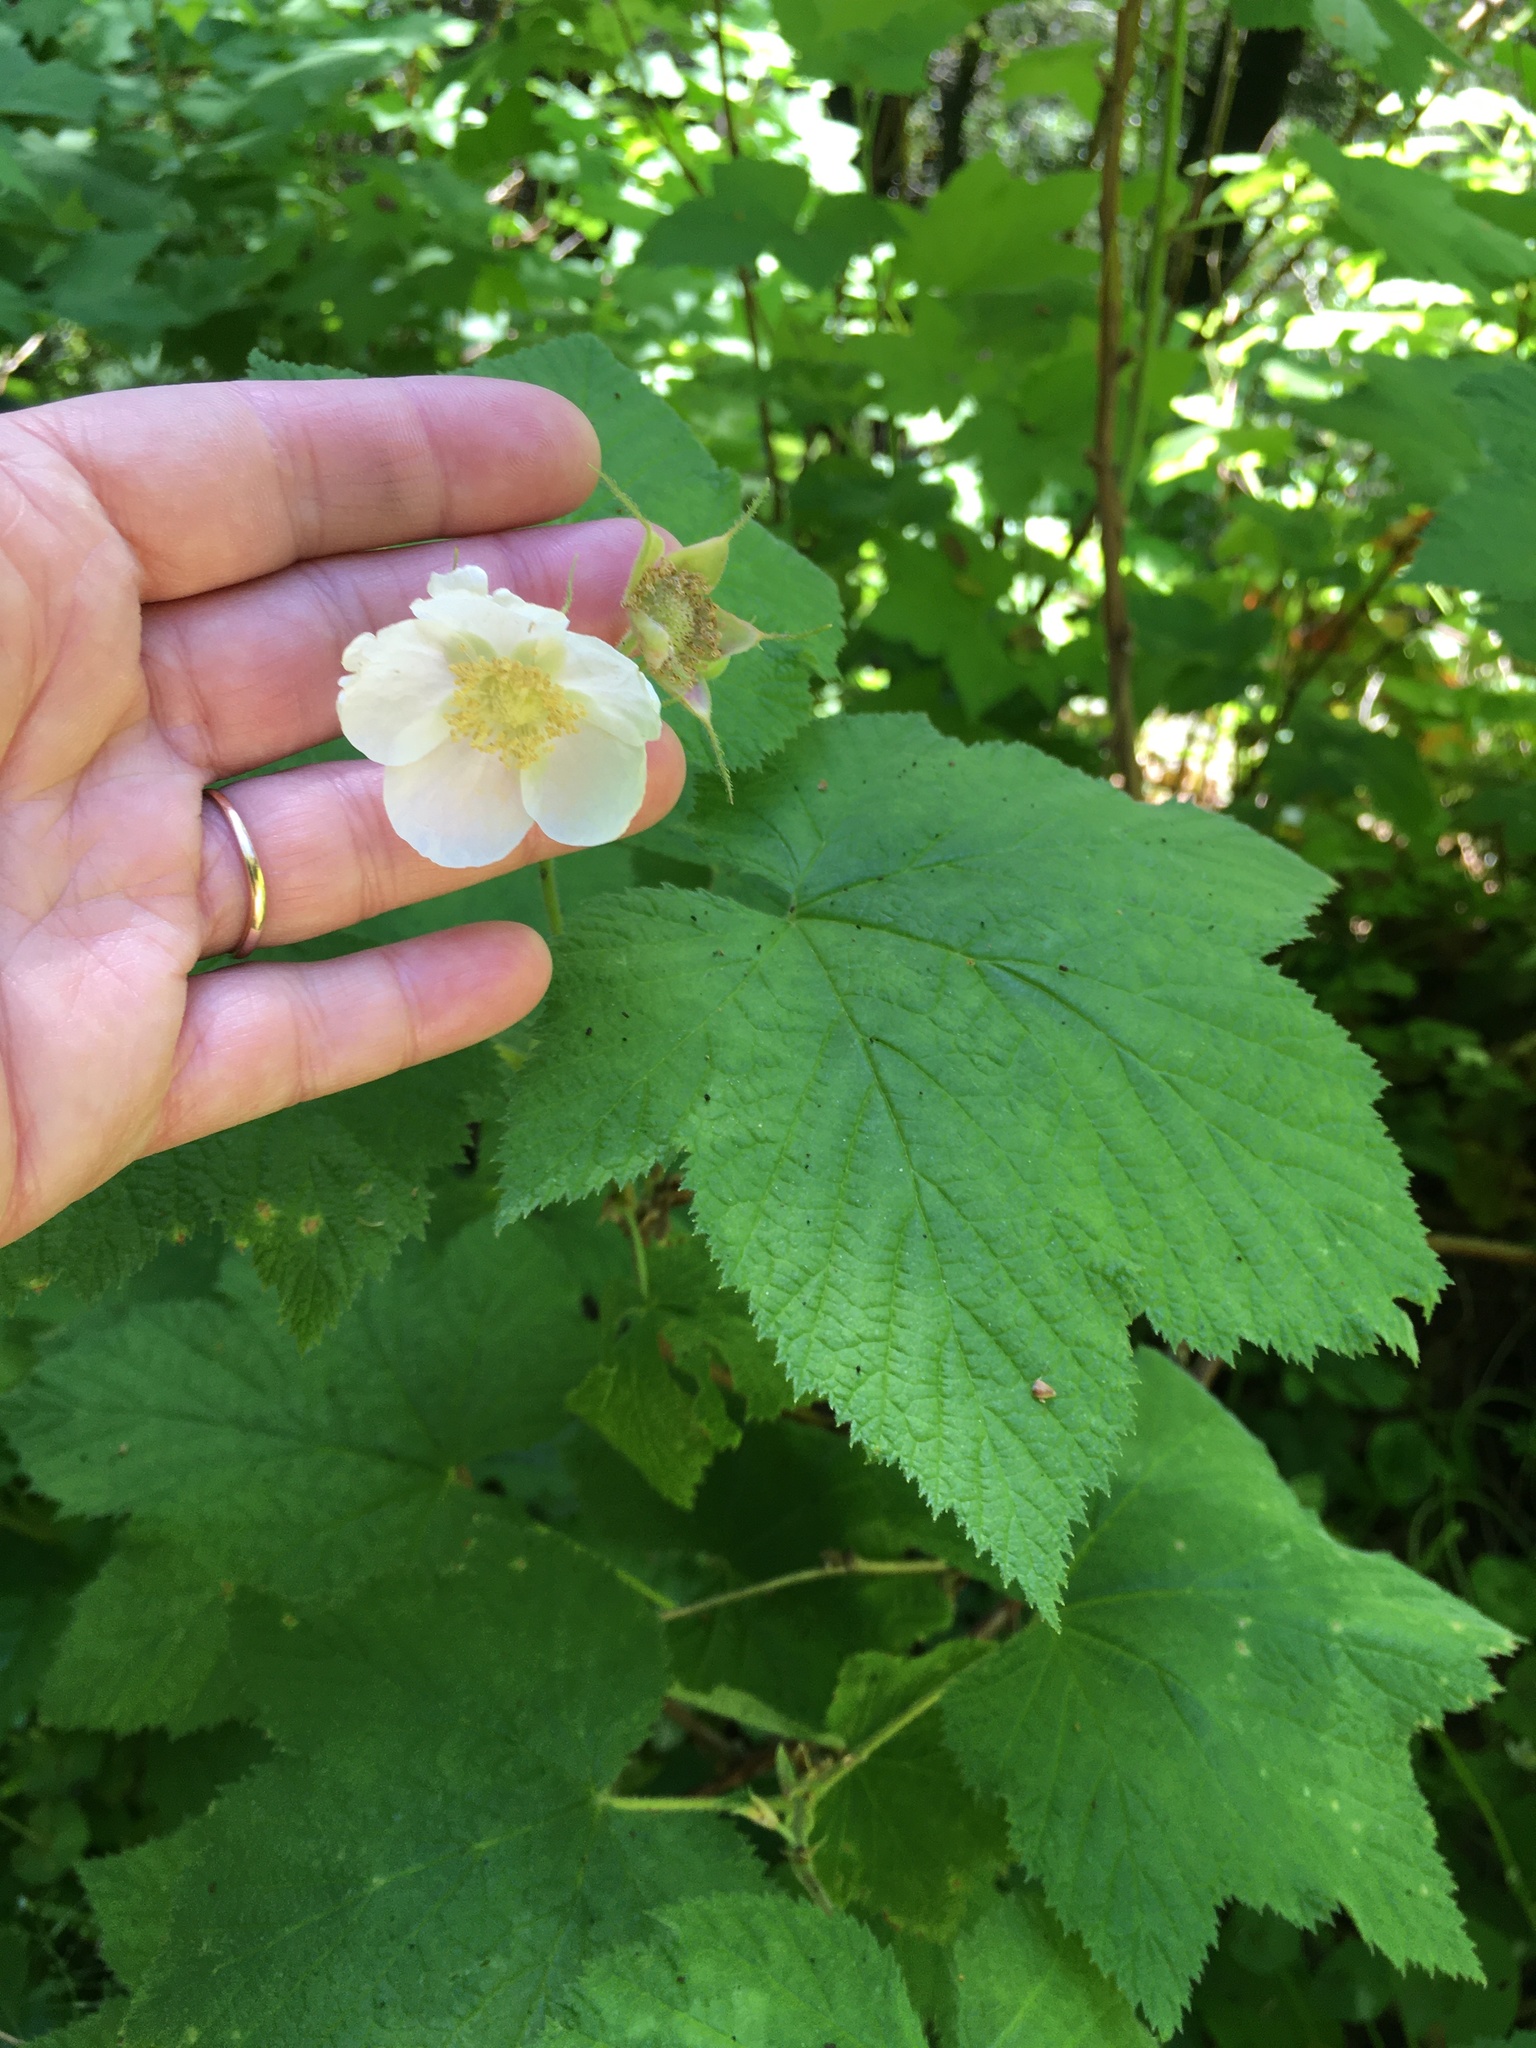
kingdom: Plantae
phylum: Tracheophyta
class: Magnoliopsida
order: Rosales
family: Rosaceae
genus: Rubus
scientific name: Rubus parviflorus
